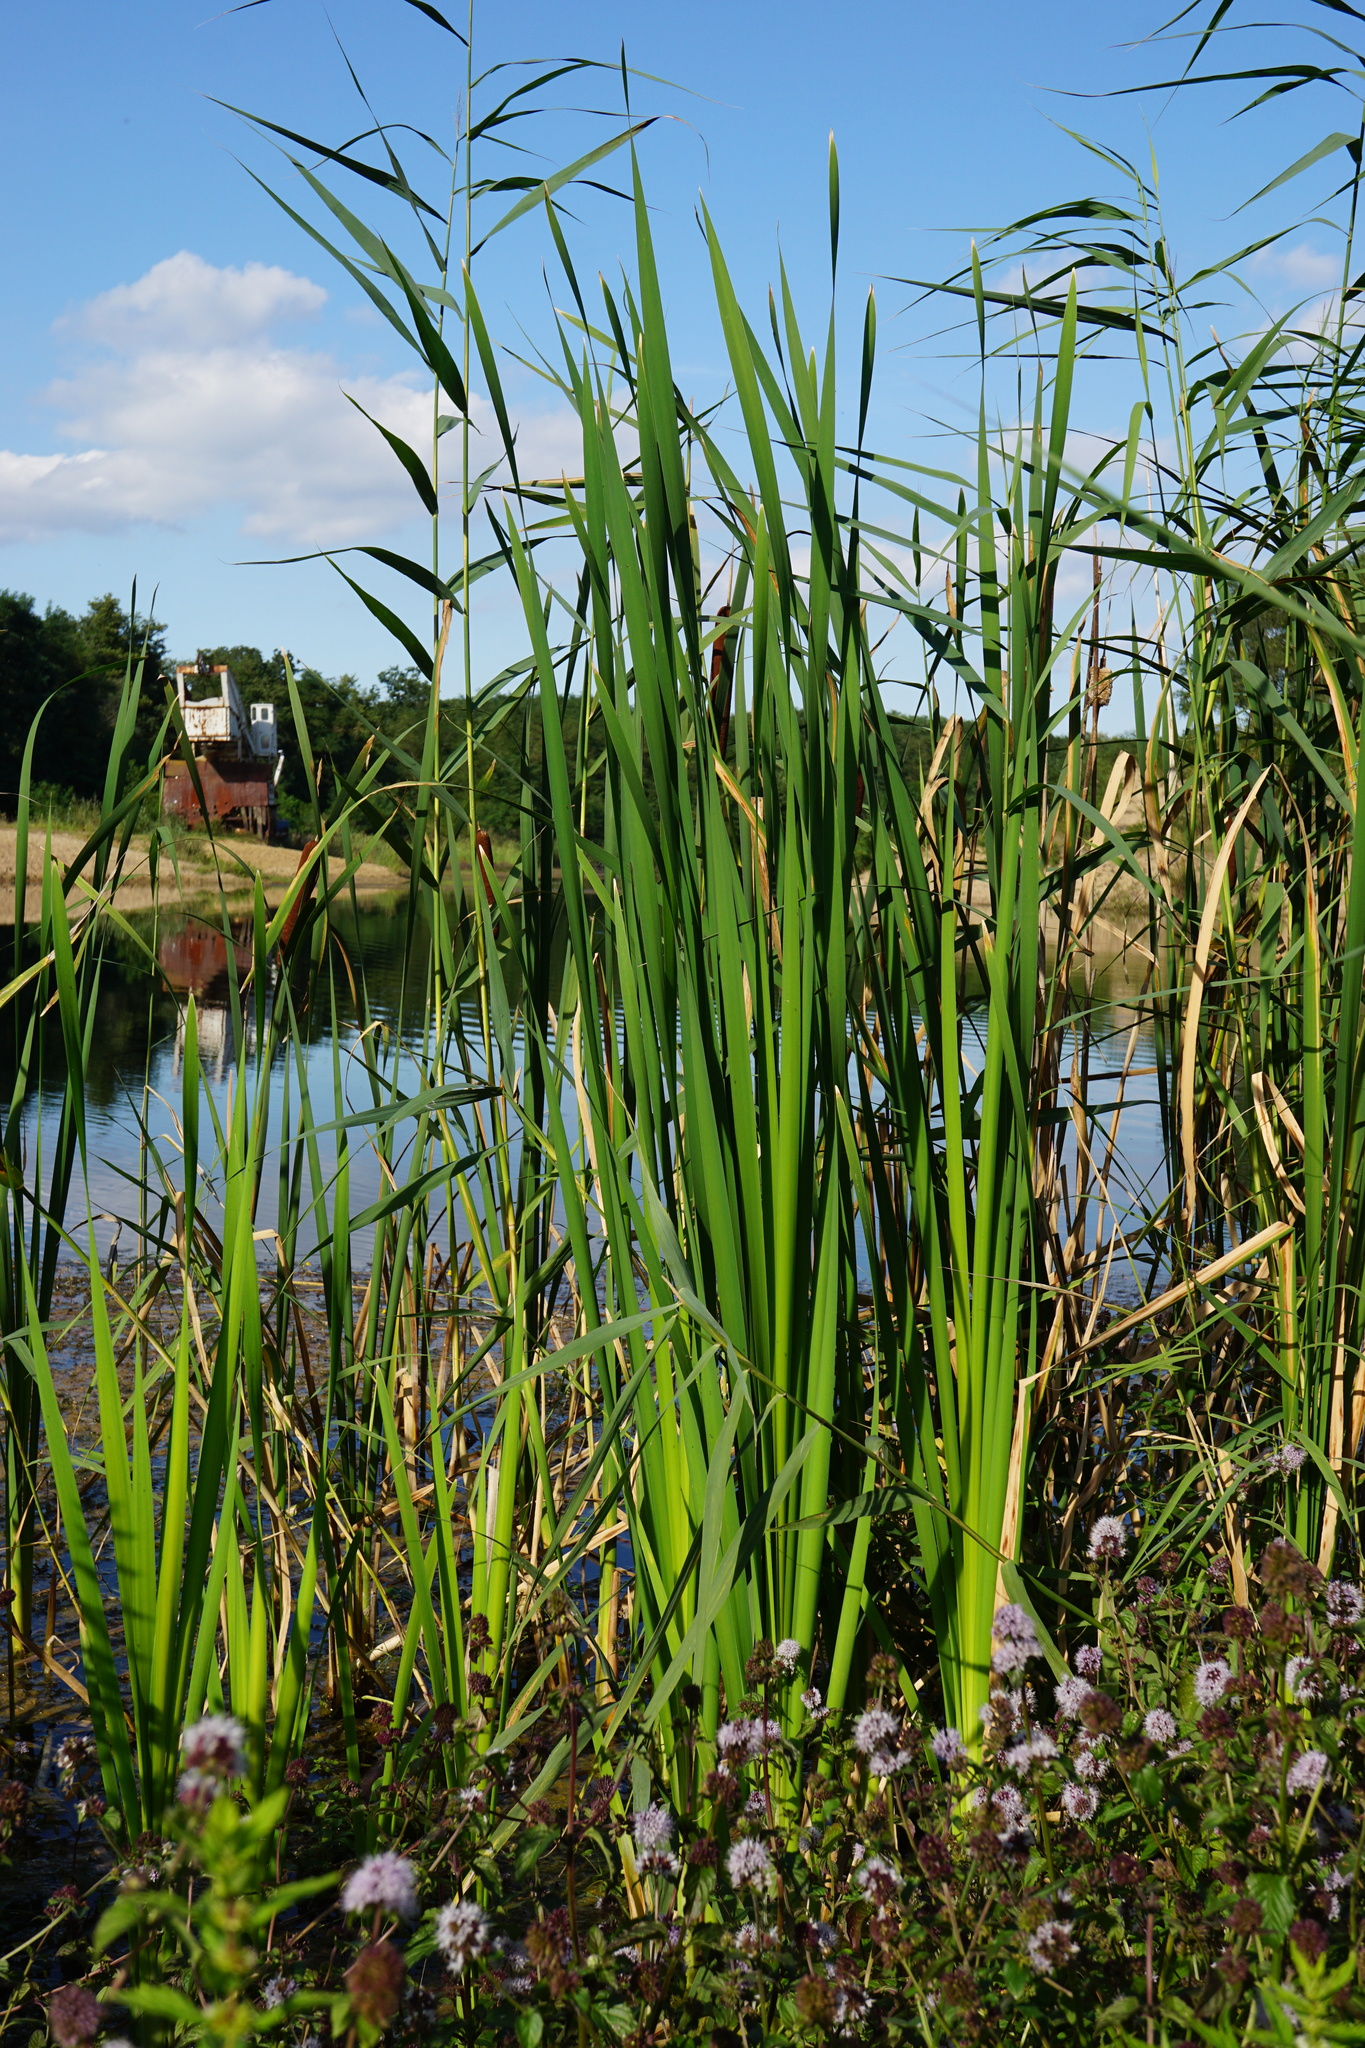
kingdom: Plantae
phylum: Tracheophyta
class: Liliopsida
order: Poales
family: Typhaceae
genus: Typha
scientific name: Typha latifolia
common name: Broadleaf cattail
